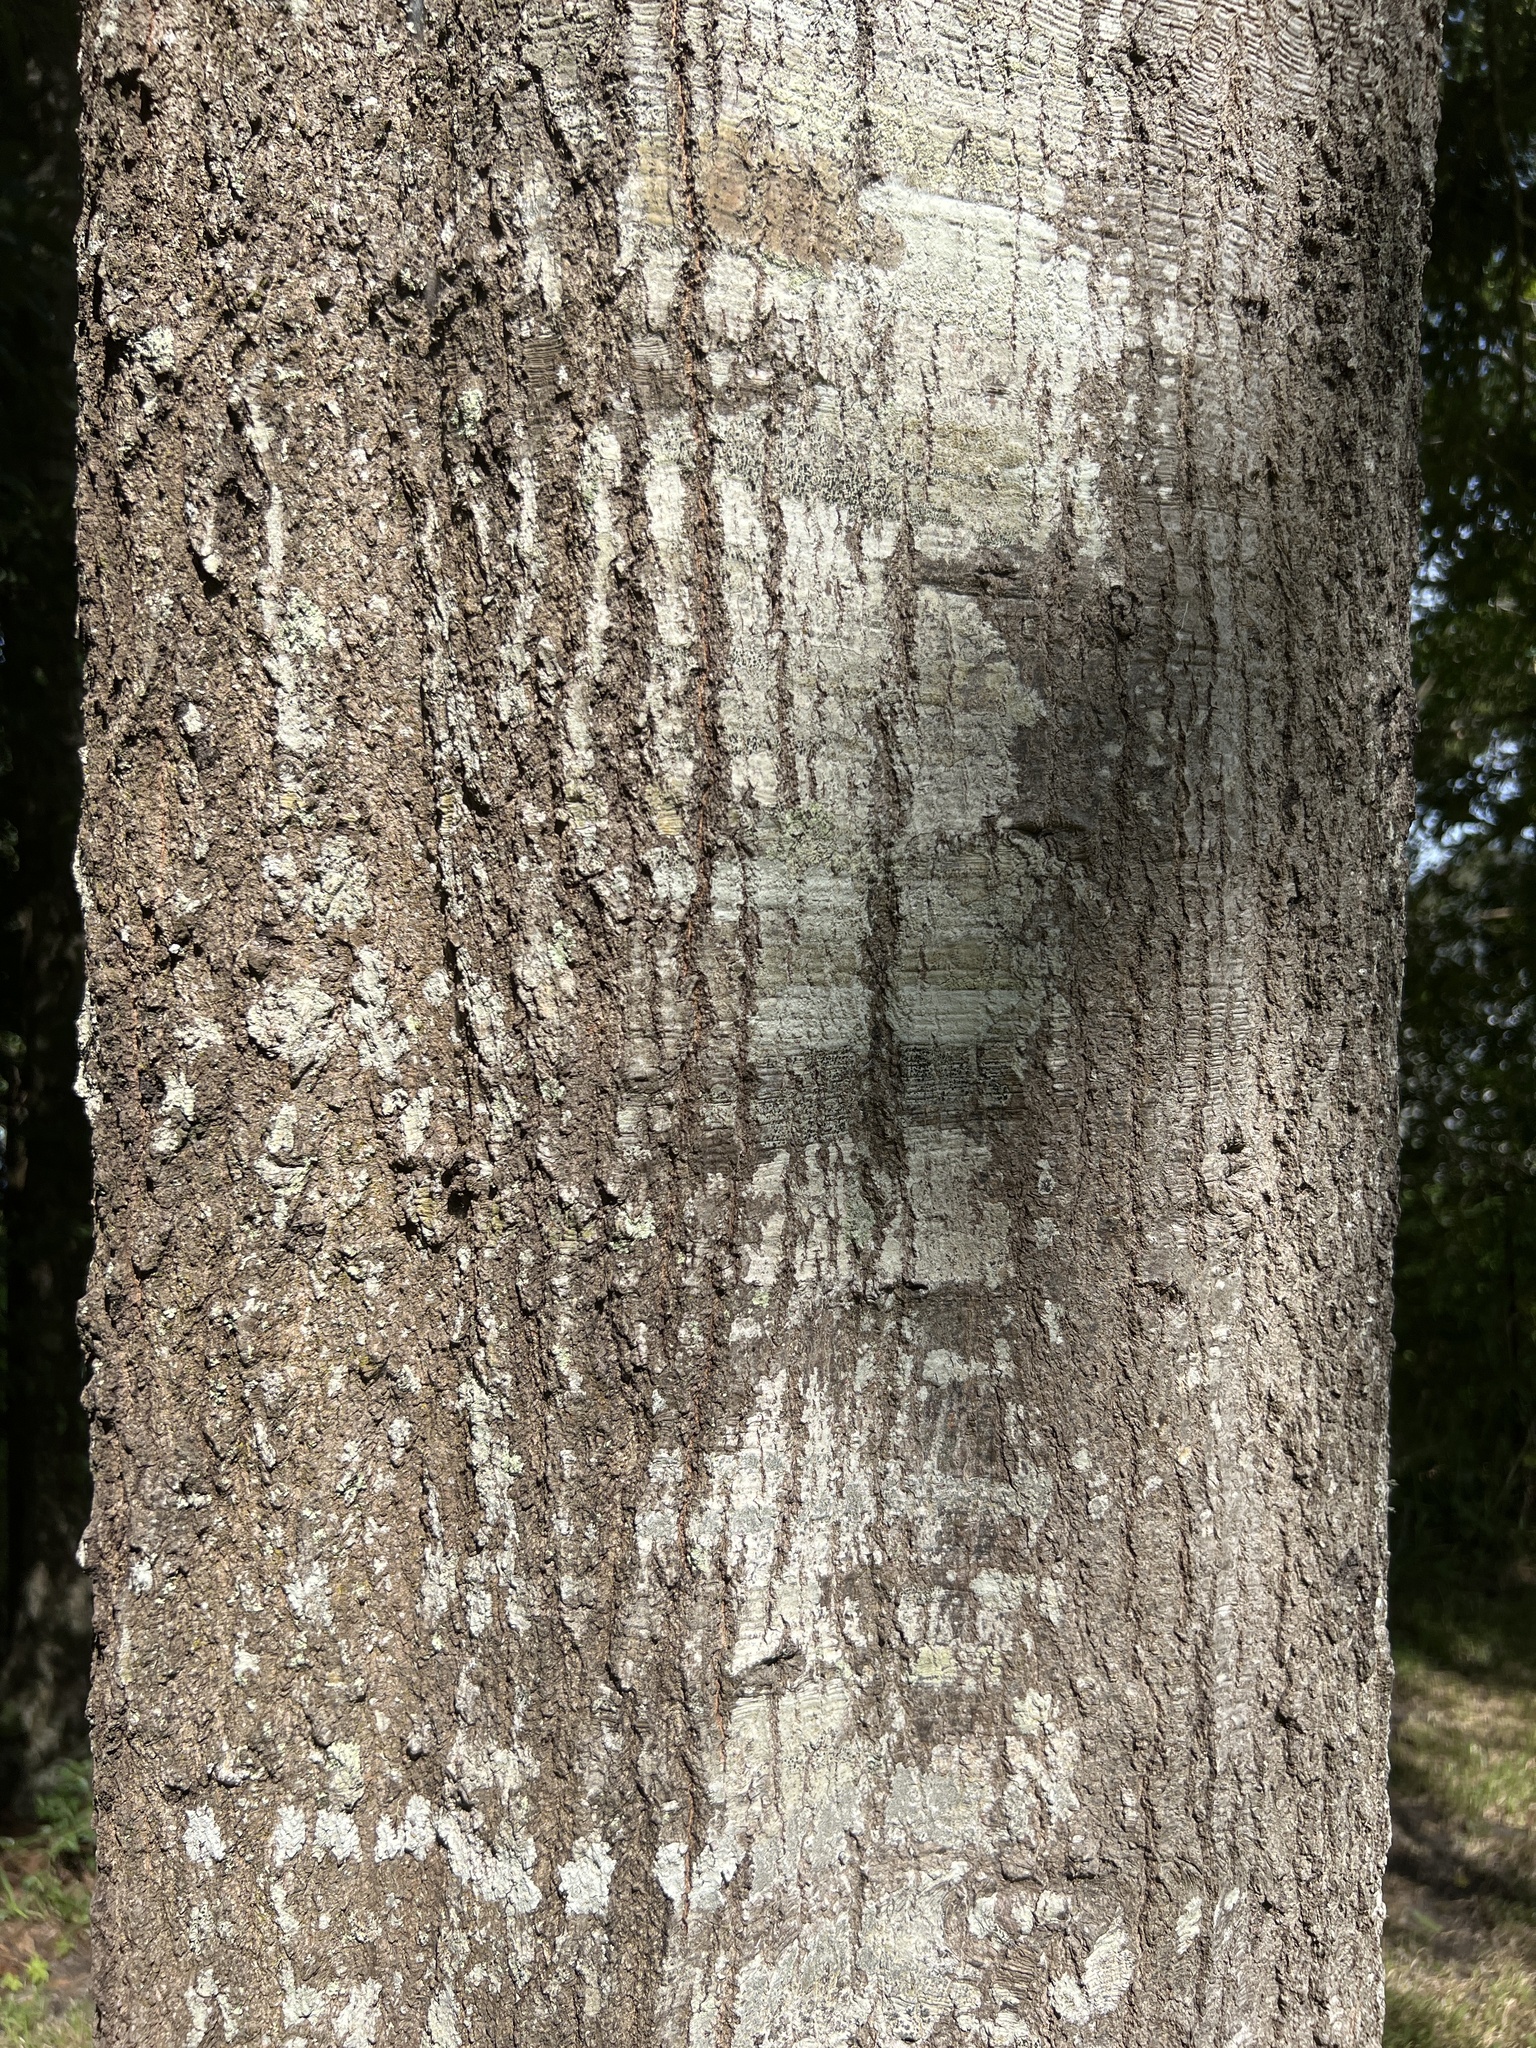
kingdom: Plantae
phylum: Tracheophyta
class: Magnoliopsida
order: Fagales
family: Fagaceae
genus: Quercus
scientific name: Quercus nigra
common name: Water oak
